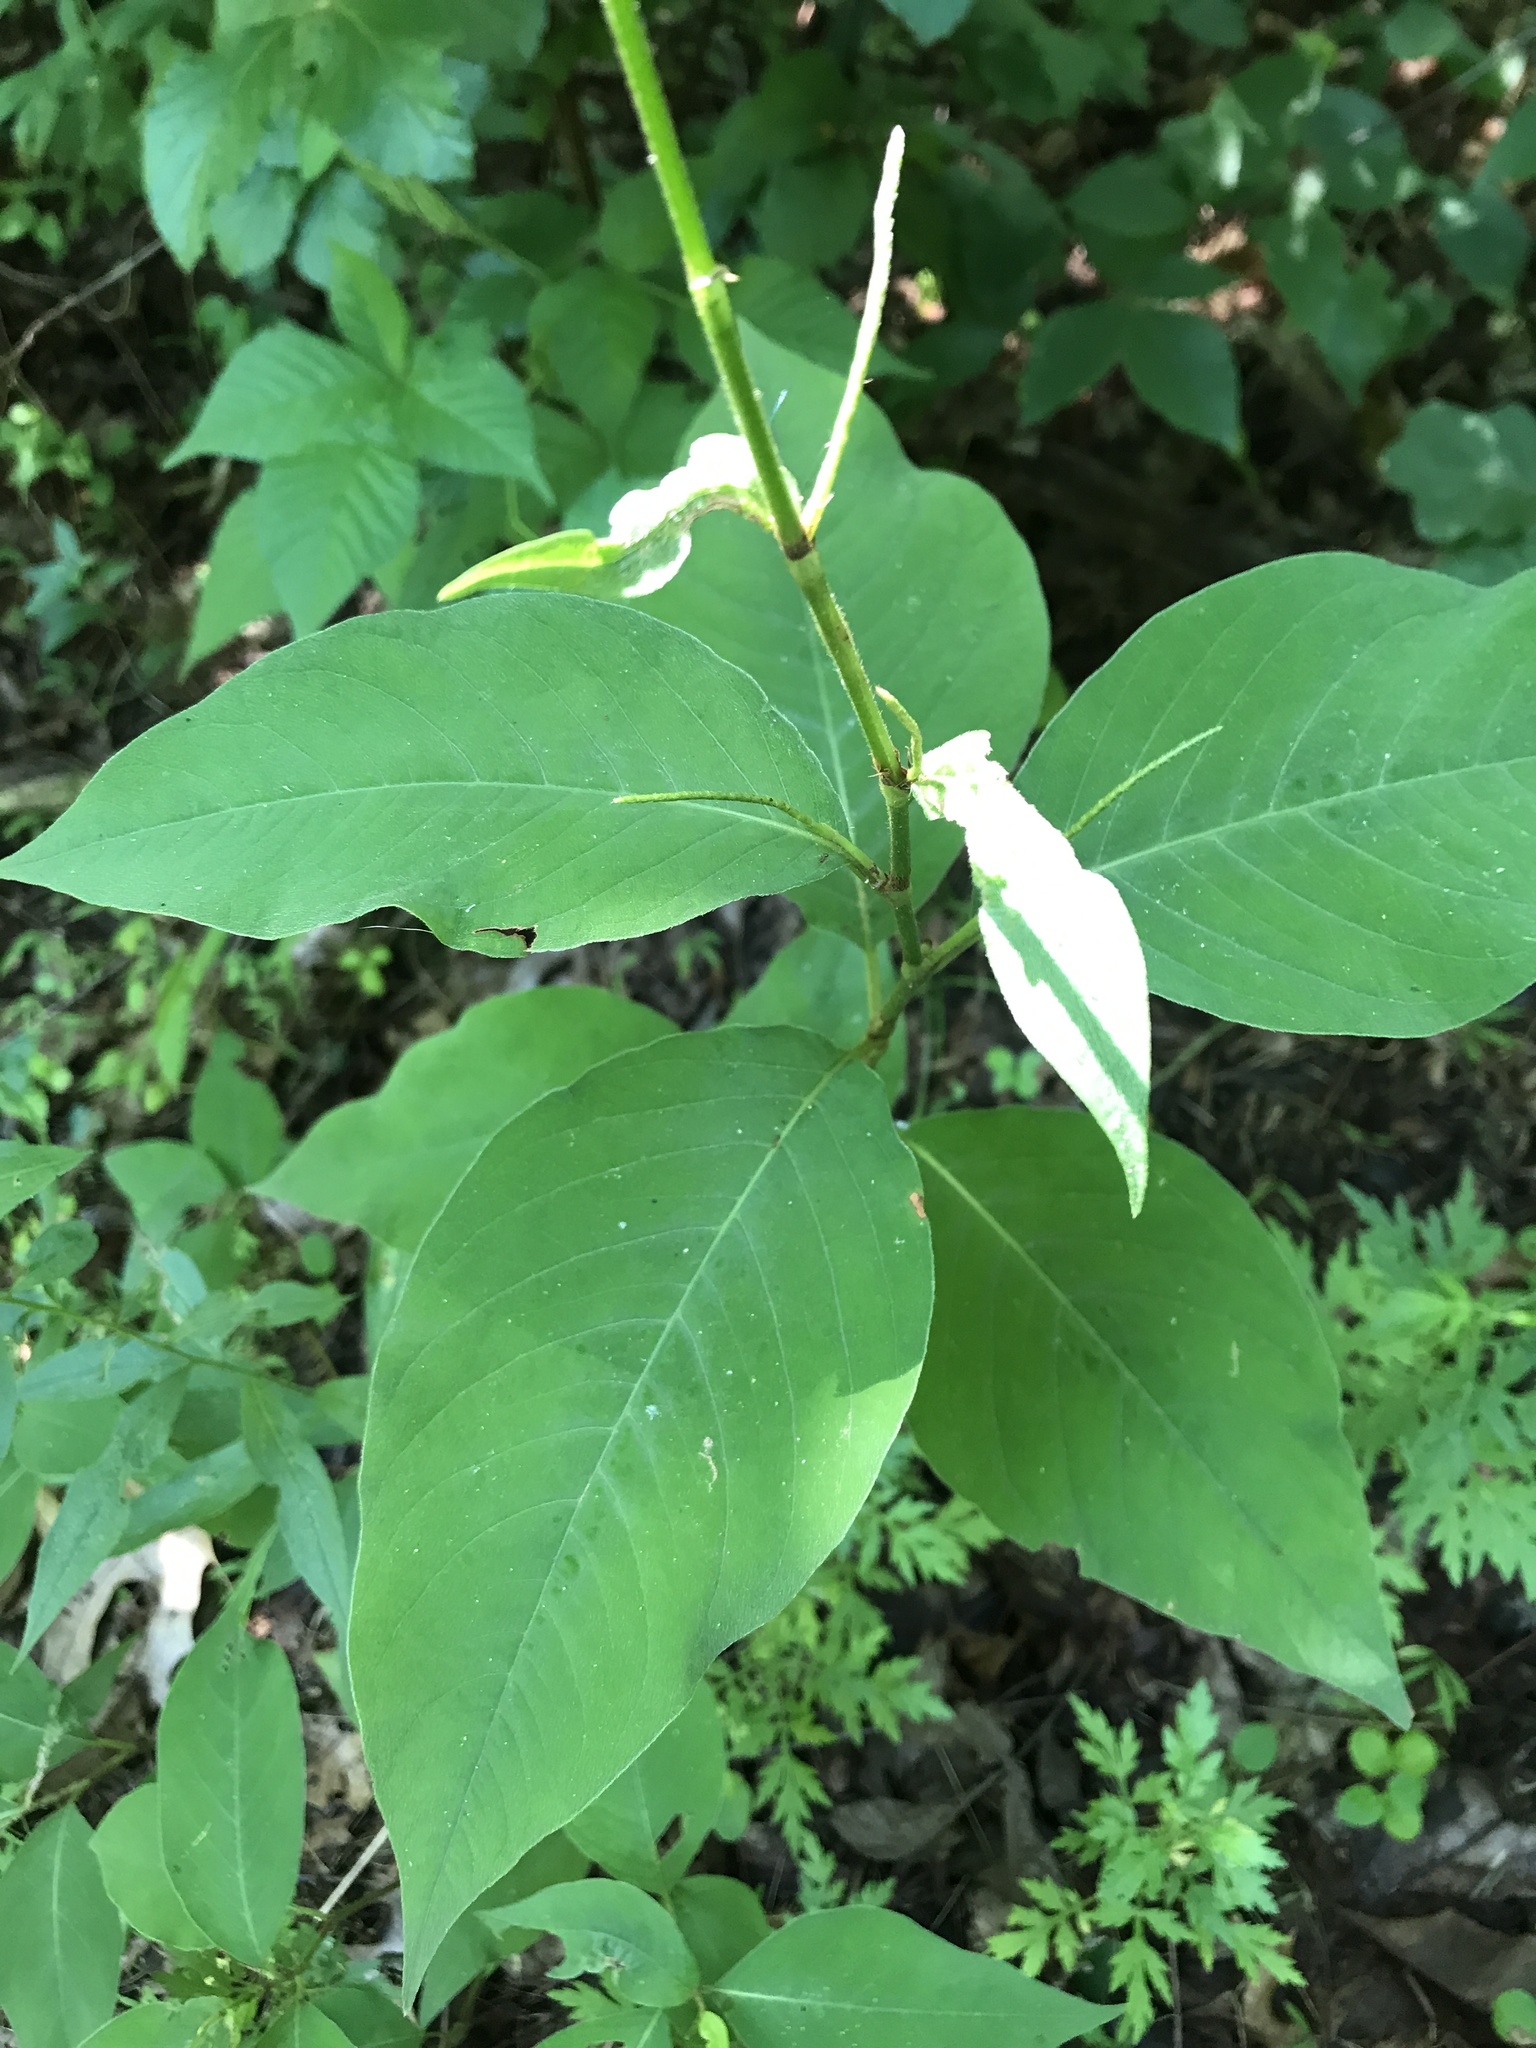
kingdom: Plantae
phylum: Tracheophyta
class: Magnoliopsida
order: Caryophyllales
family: Polygonaceae
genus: Persicaria
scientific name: Persicaria virginiana
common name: Jumpseed
